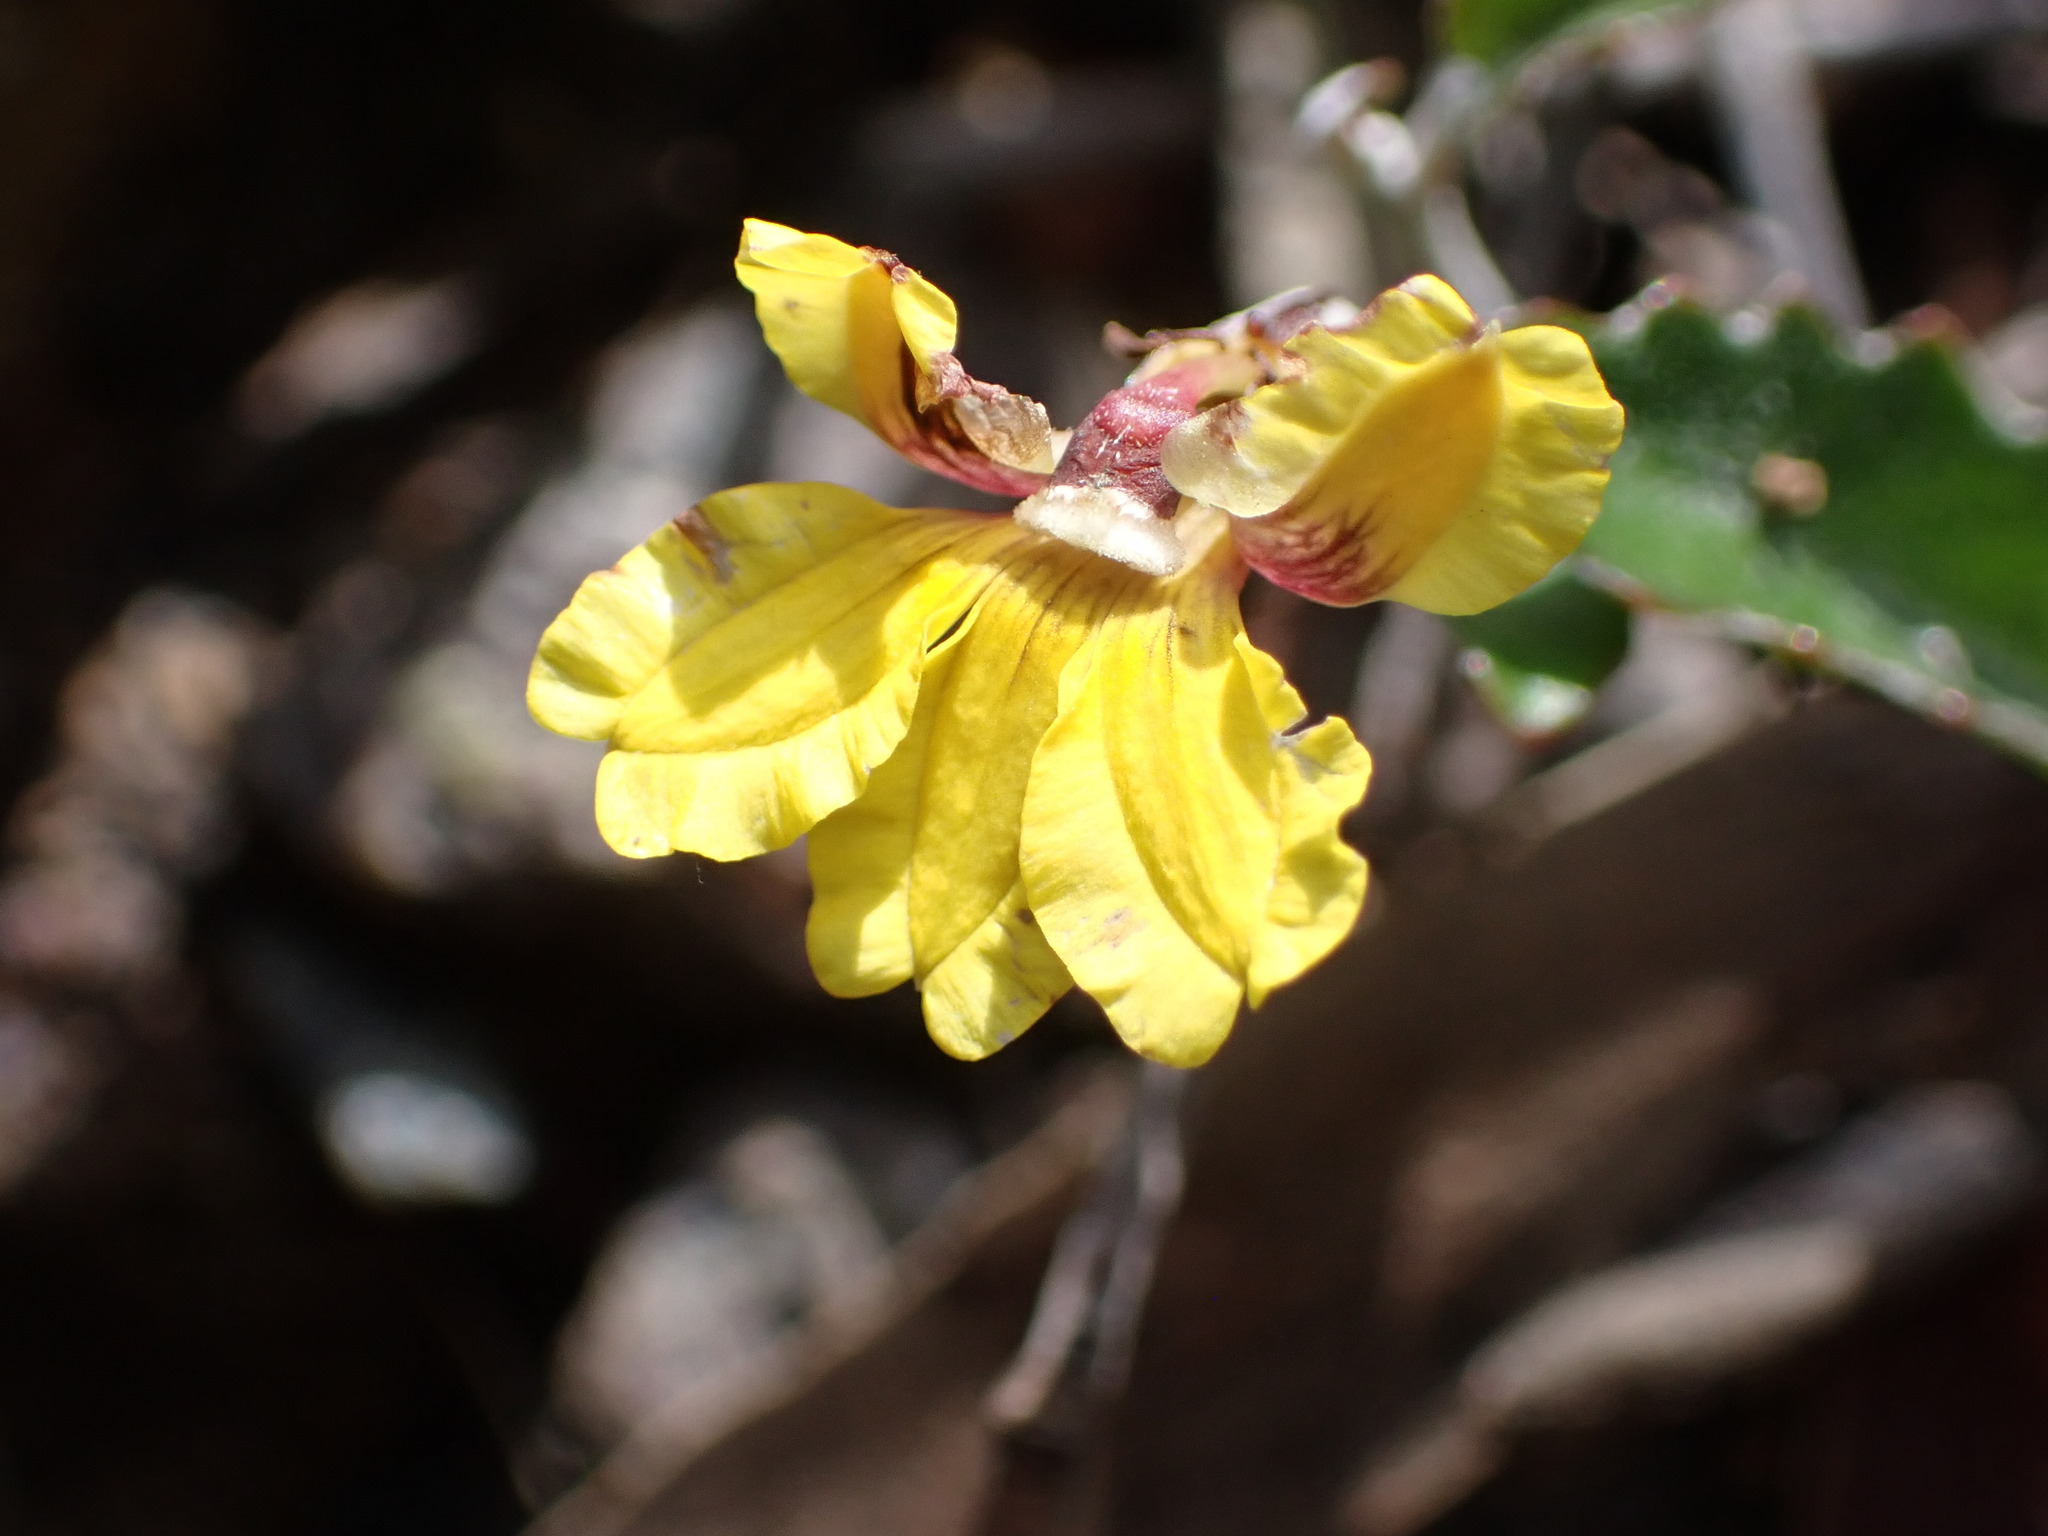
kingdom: Plantae
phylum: Tracheophyta
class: Magnoliopsida
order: Asterales
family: Goodeniaceae
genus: Goodenia
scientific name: Goodenia hederacea
